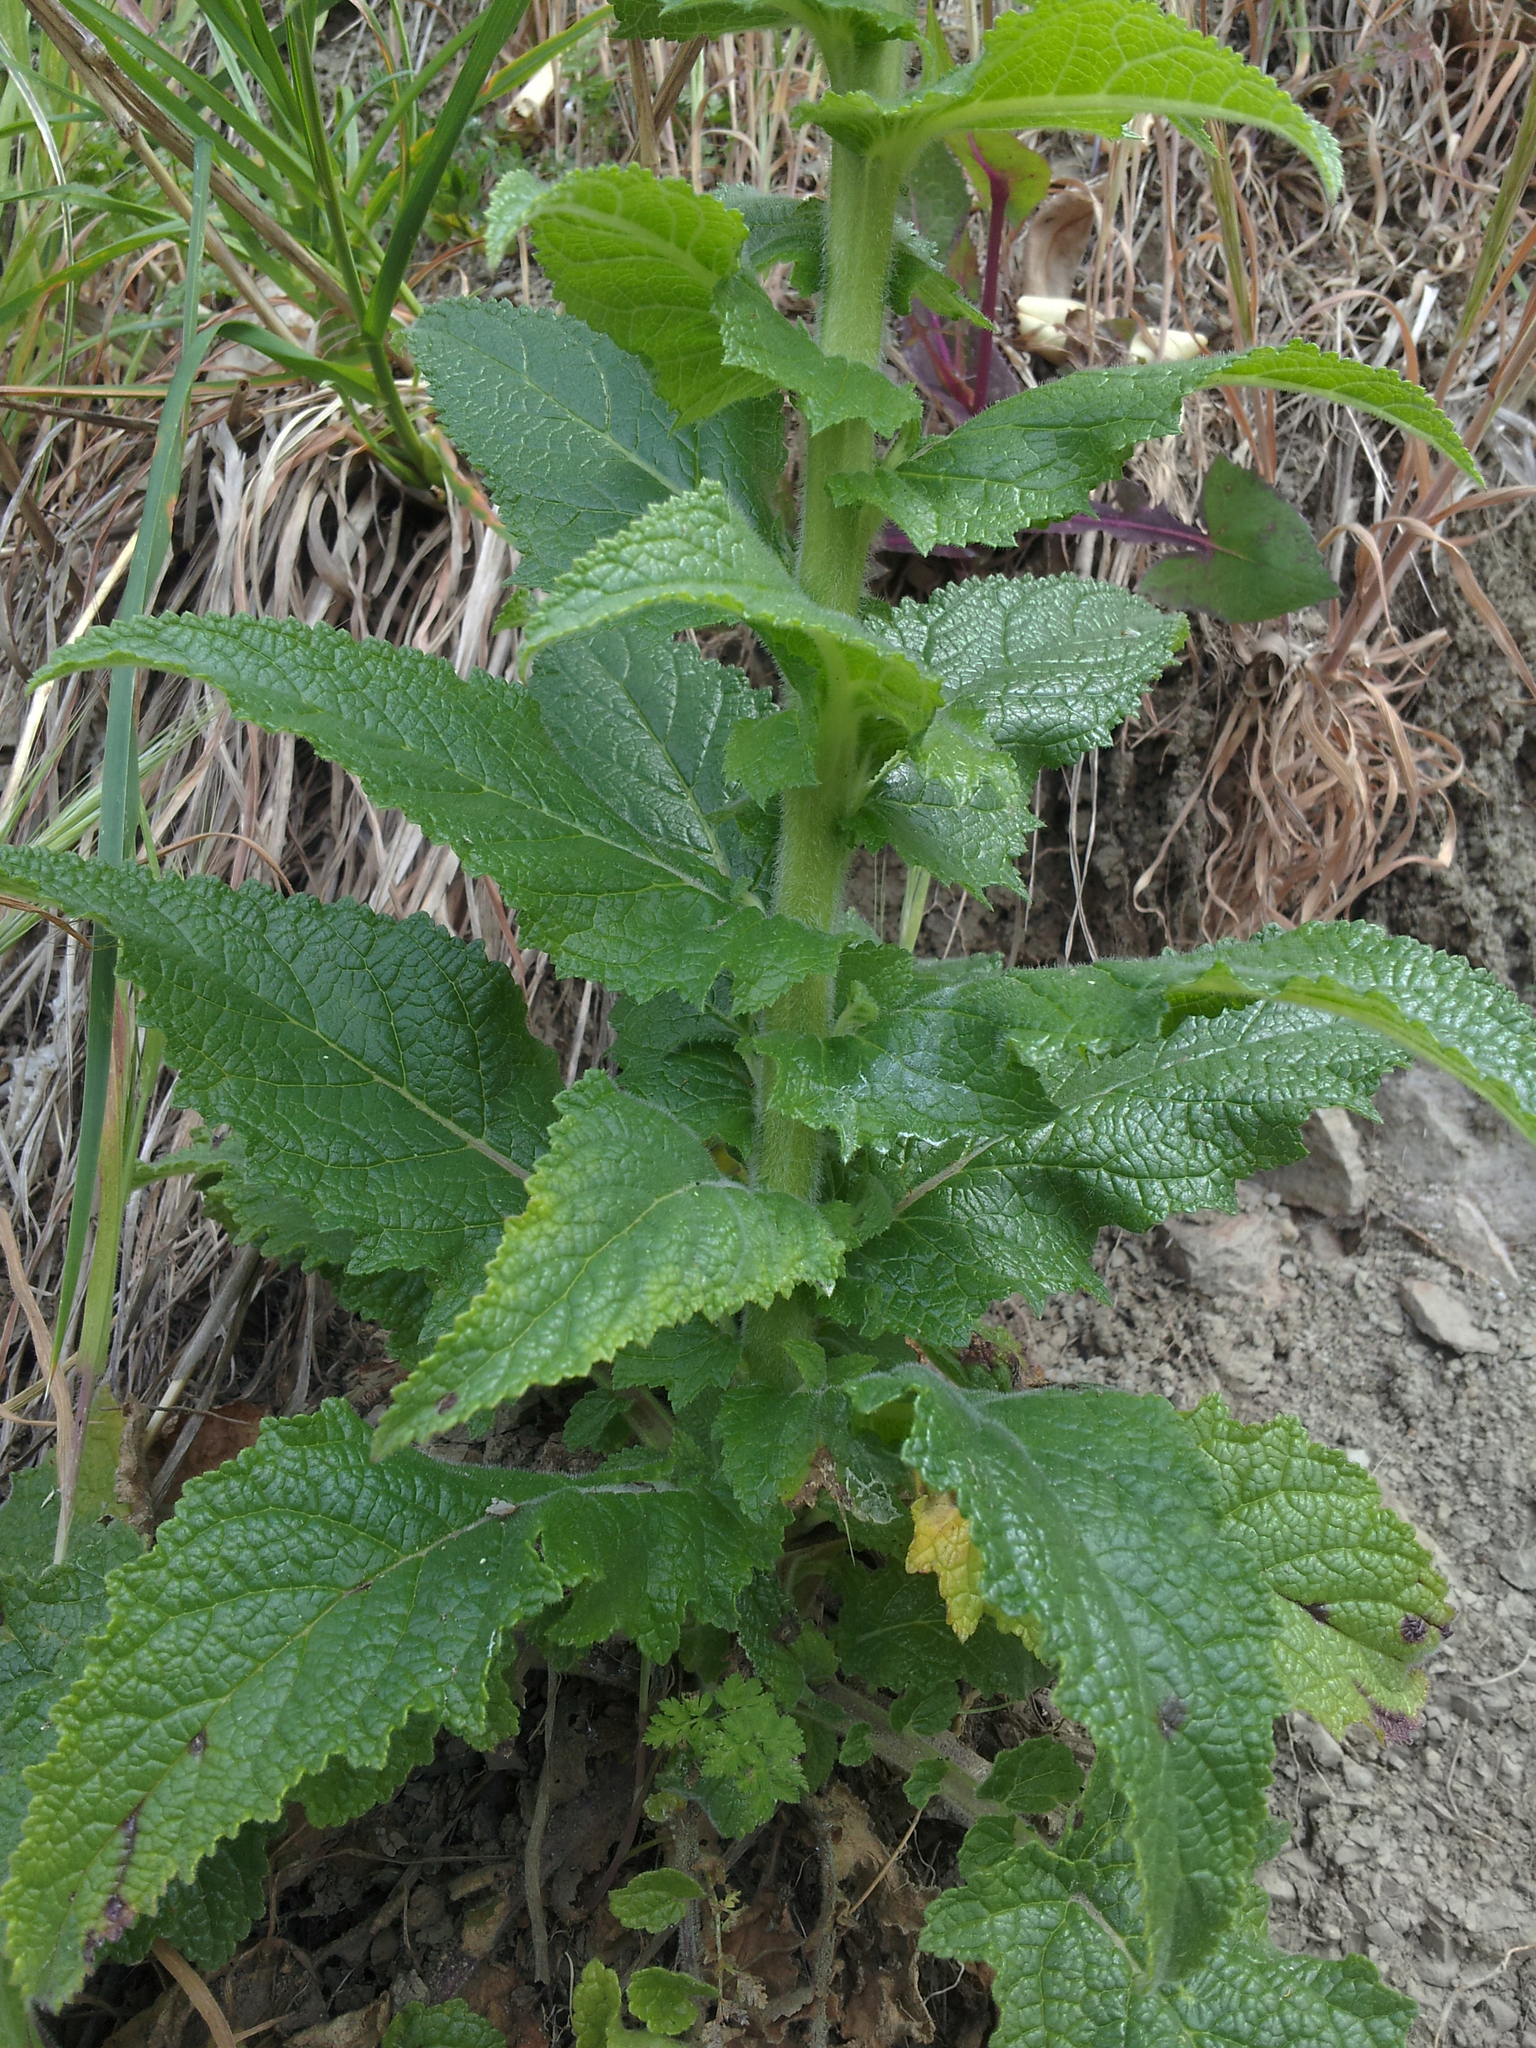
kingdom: Plantae
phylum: Tracheophyta
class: Magnoliopsida
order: Lamiales
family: Scrophulariaceae
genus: Verbascum
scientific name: Verbascum creticum
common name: Cretan mullein
